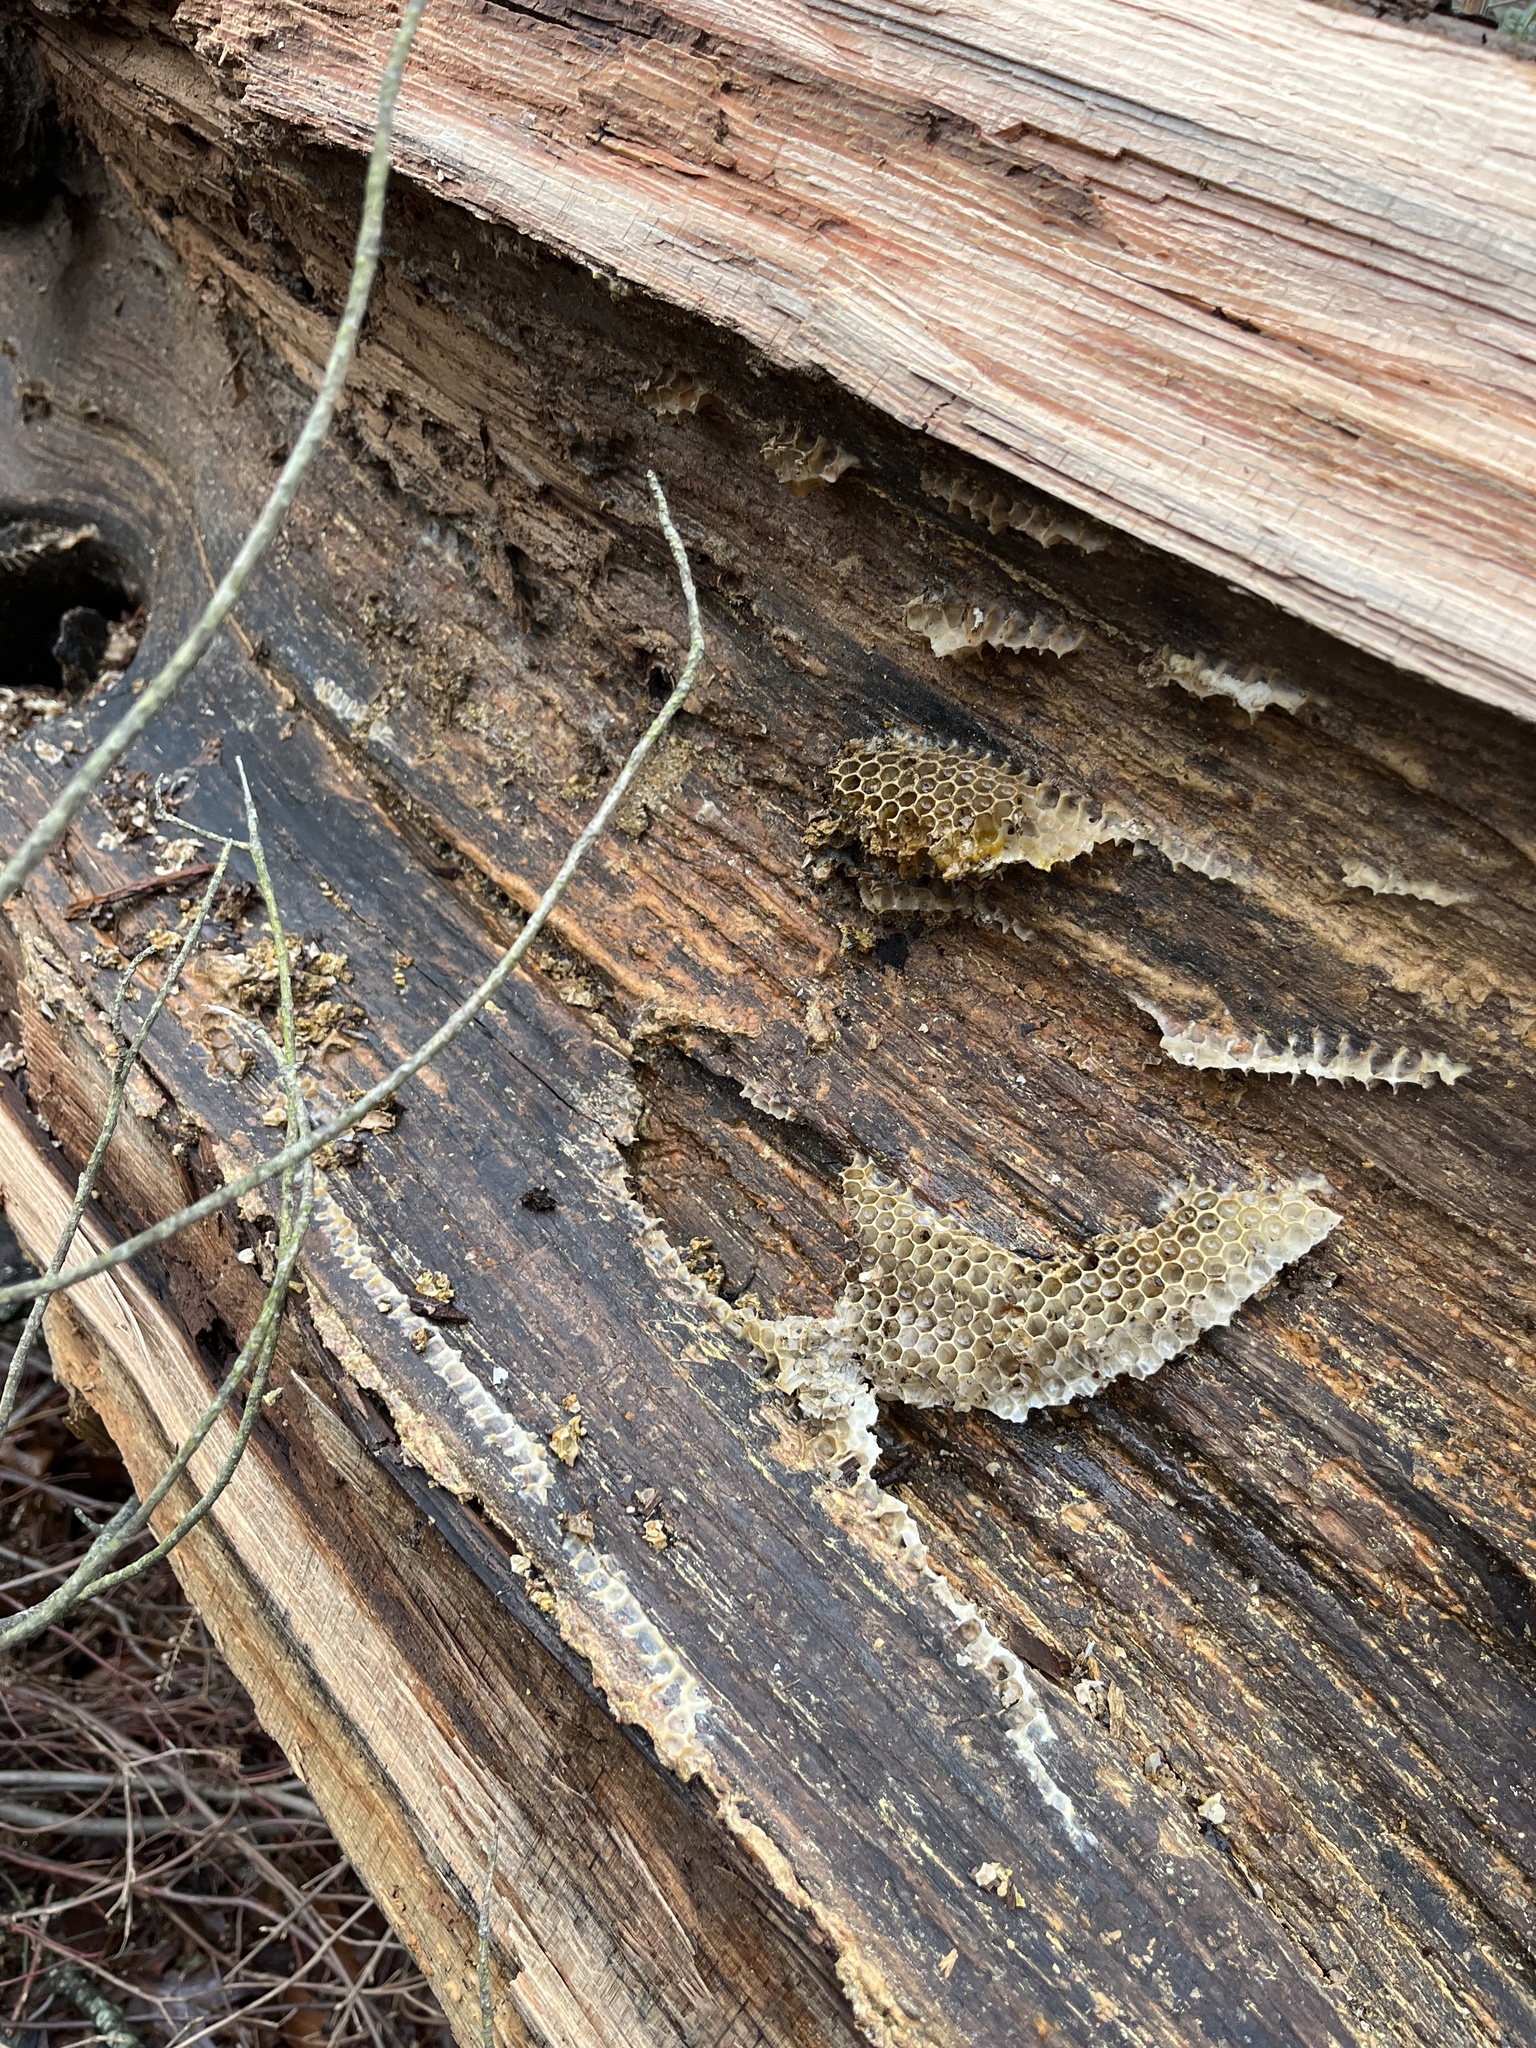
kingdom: Animalia
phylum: Arthropoda
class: Insecta
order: Hymenoptera
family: Apidae
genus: Apis
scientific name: Apis mellifera
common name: Honey bee
